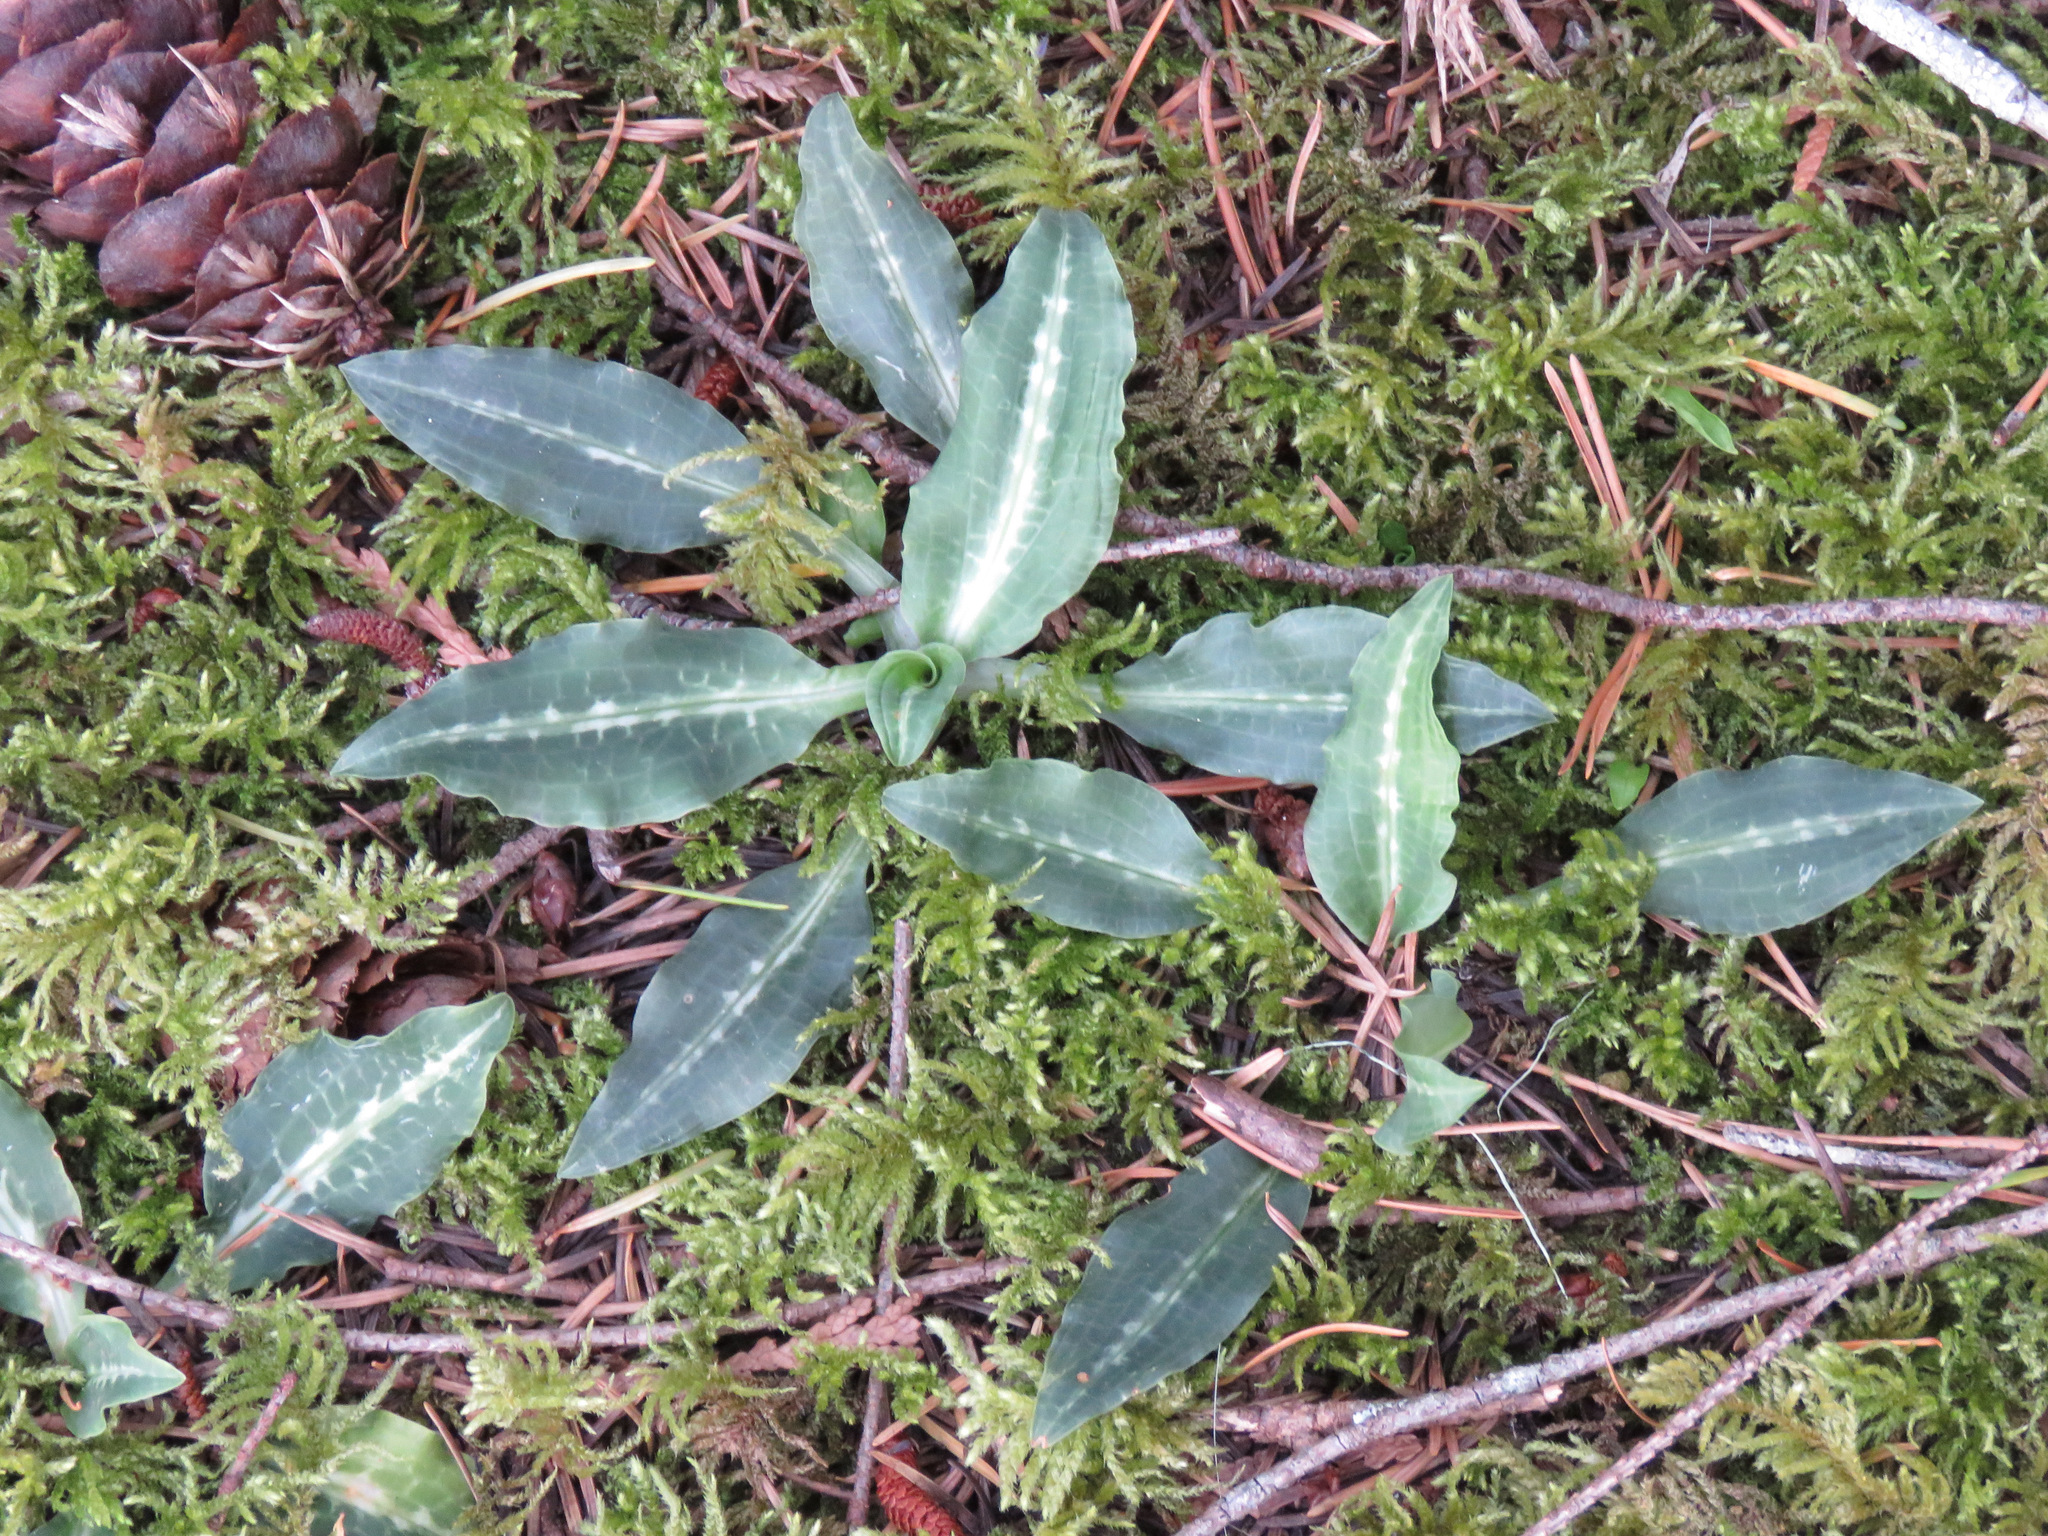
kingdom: Plantae
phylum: Tracheophyta
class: Liliopsida
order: Asparagales
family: Orchidaceae
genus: Goodyera
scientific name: Goodyera oblongifolia
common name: Giant rattlesnake-plantain
